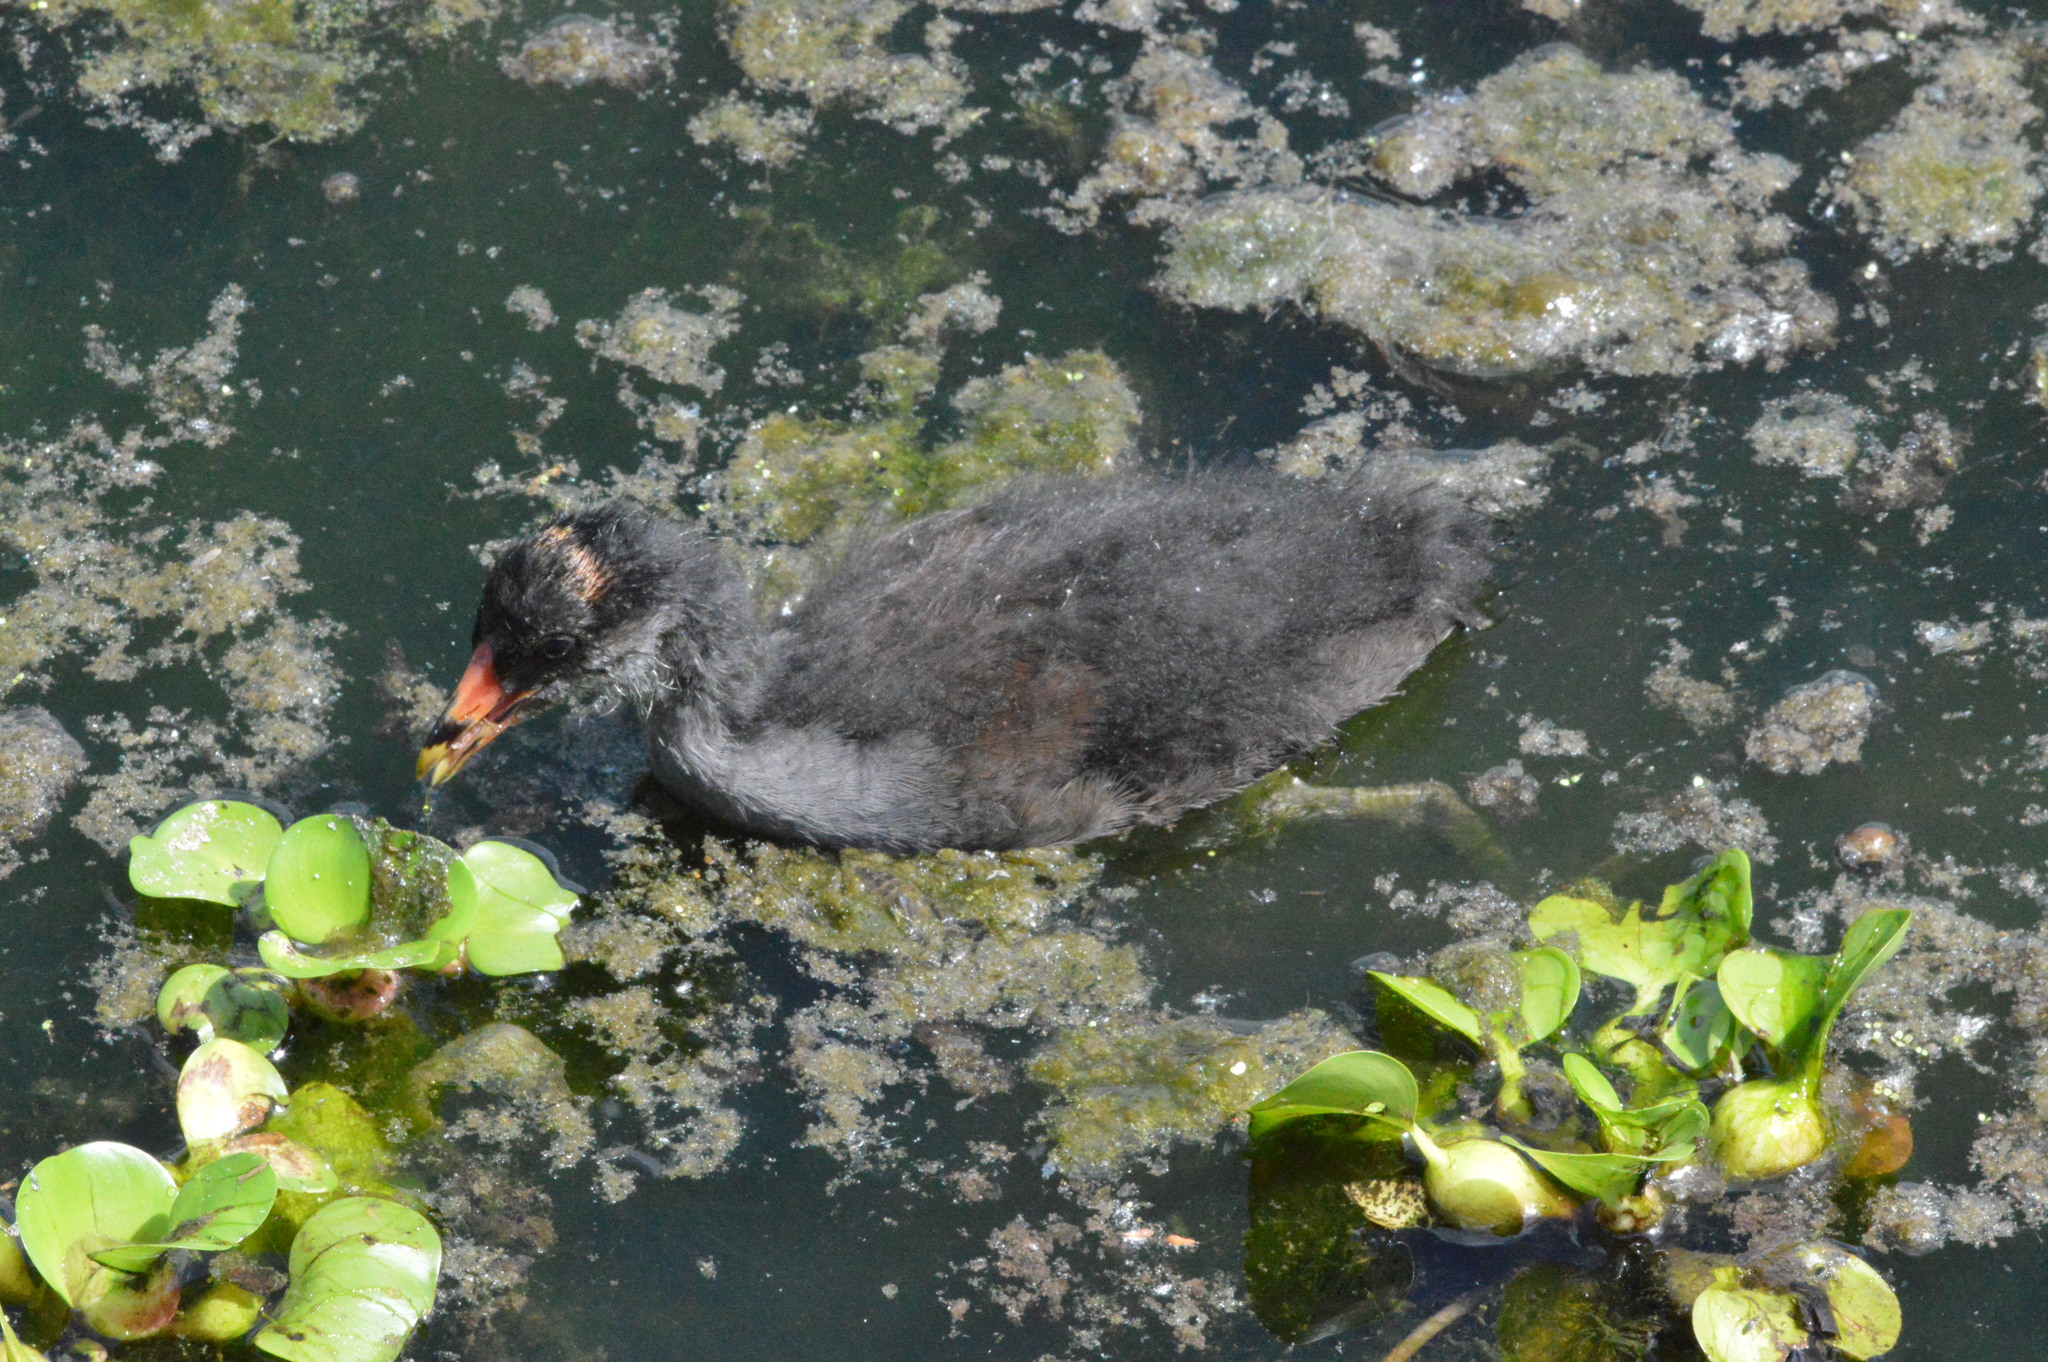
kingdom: Animalia
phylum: Chordata
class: Aves
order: Gruiformes
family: Rallidae
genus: Gallinula
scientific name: Gallinula chloropus
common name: Common moorhen
